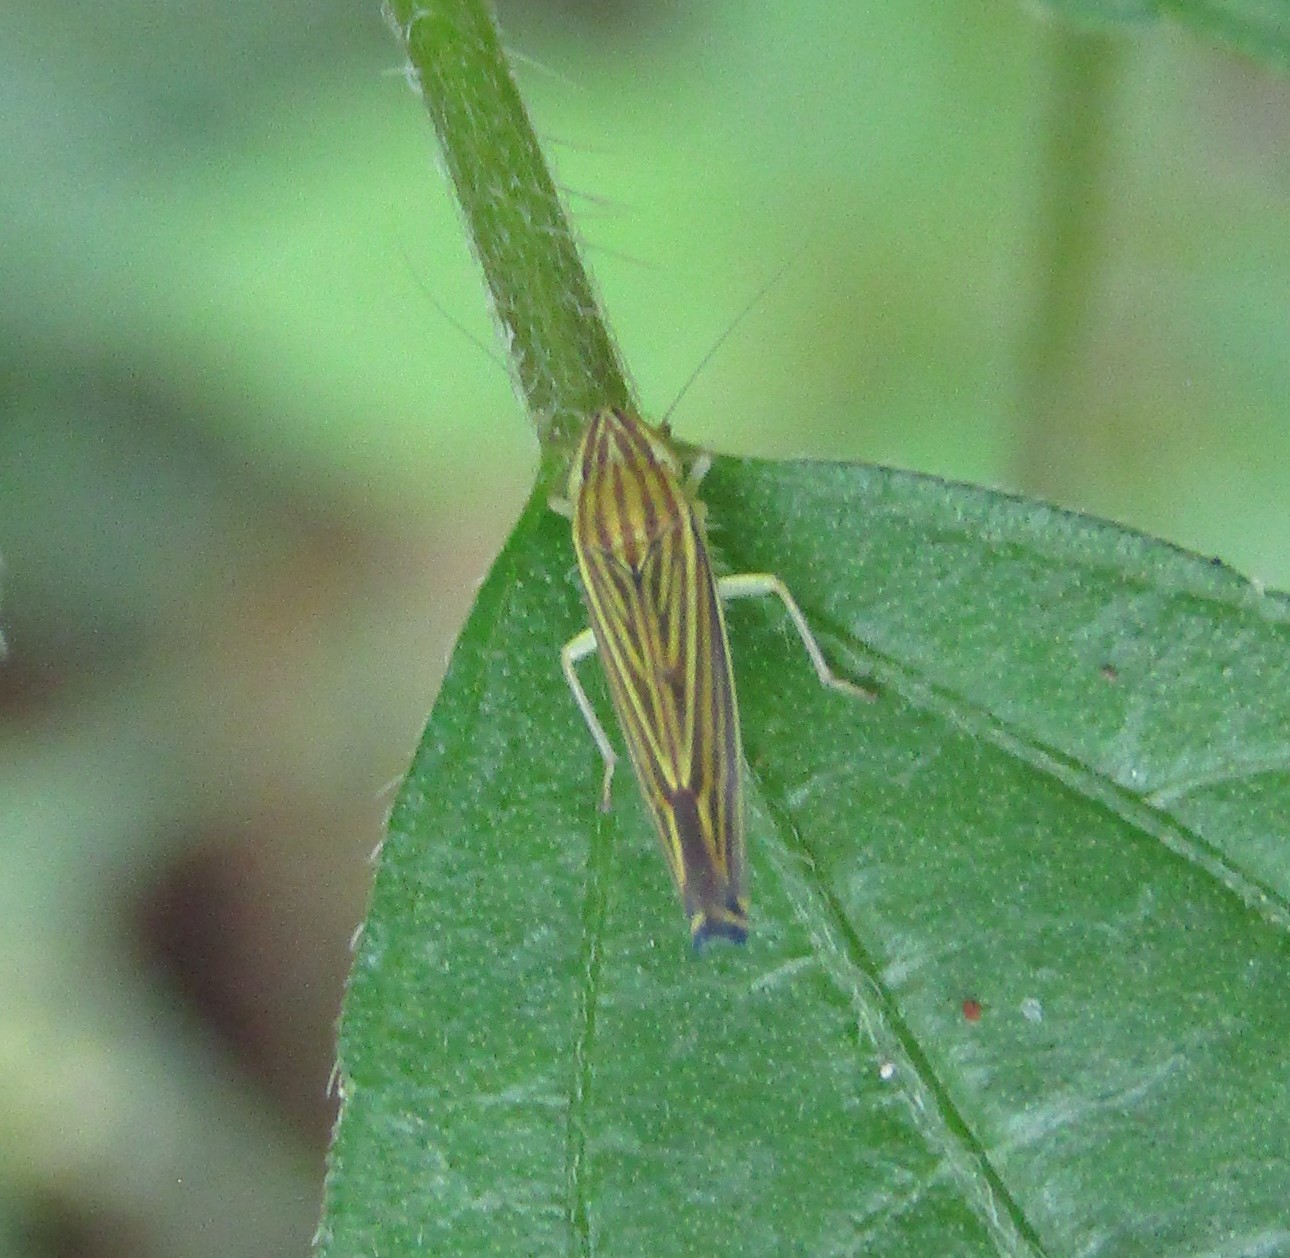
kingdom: Animalia
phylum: Arthropoda
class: Insecta
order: Hemiptera
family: Cicadellidae
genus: Sibovia
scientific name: Sibovia occatoria
